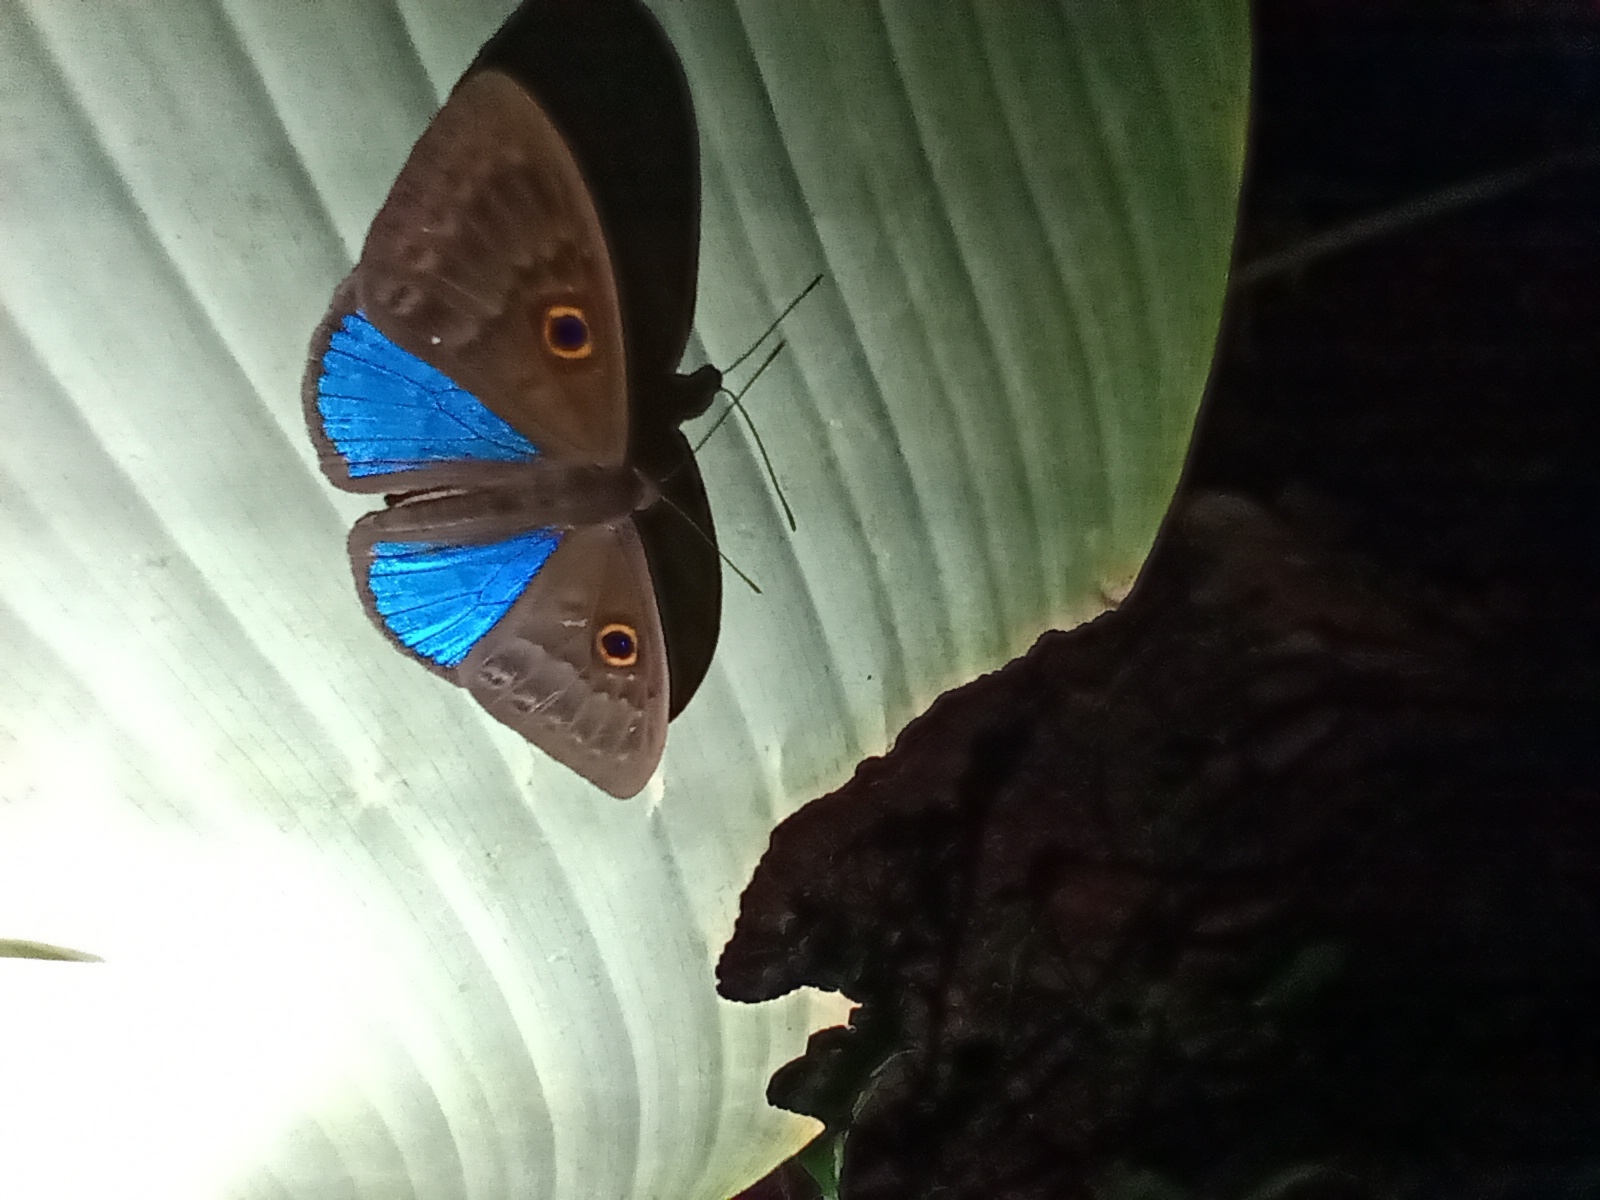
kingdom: Animalia
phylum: Cnidaria
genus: Eurybia
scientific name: Eurybia lycisca
